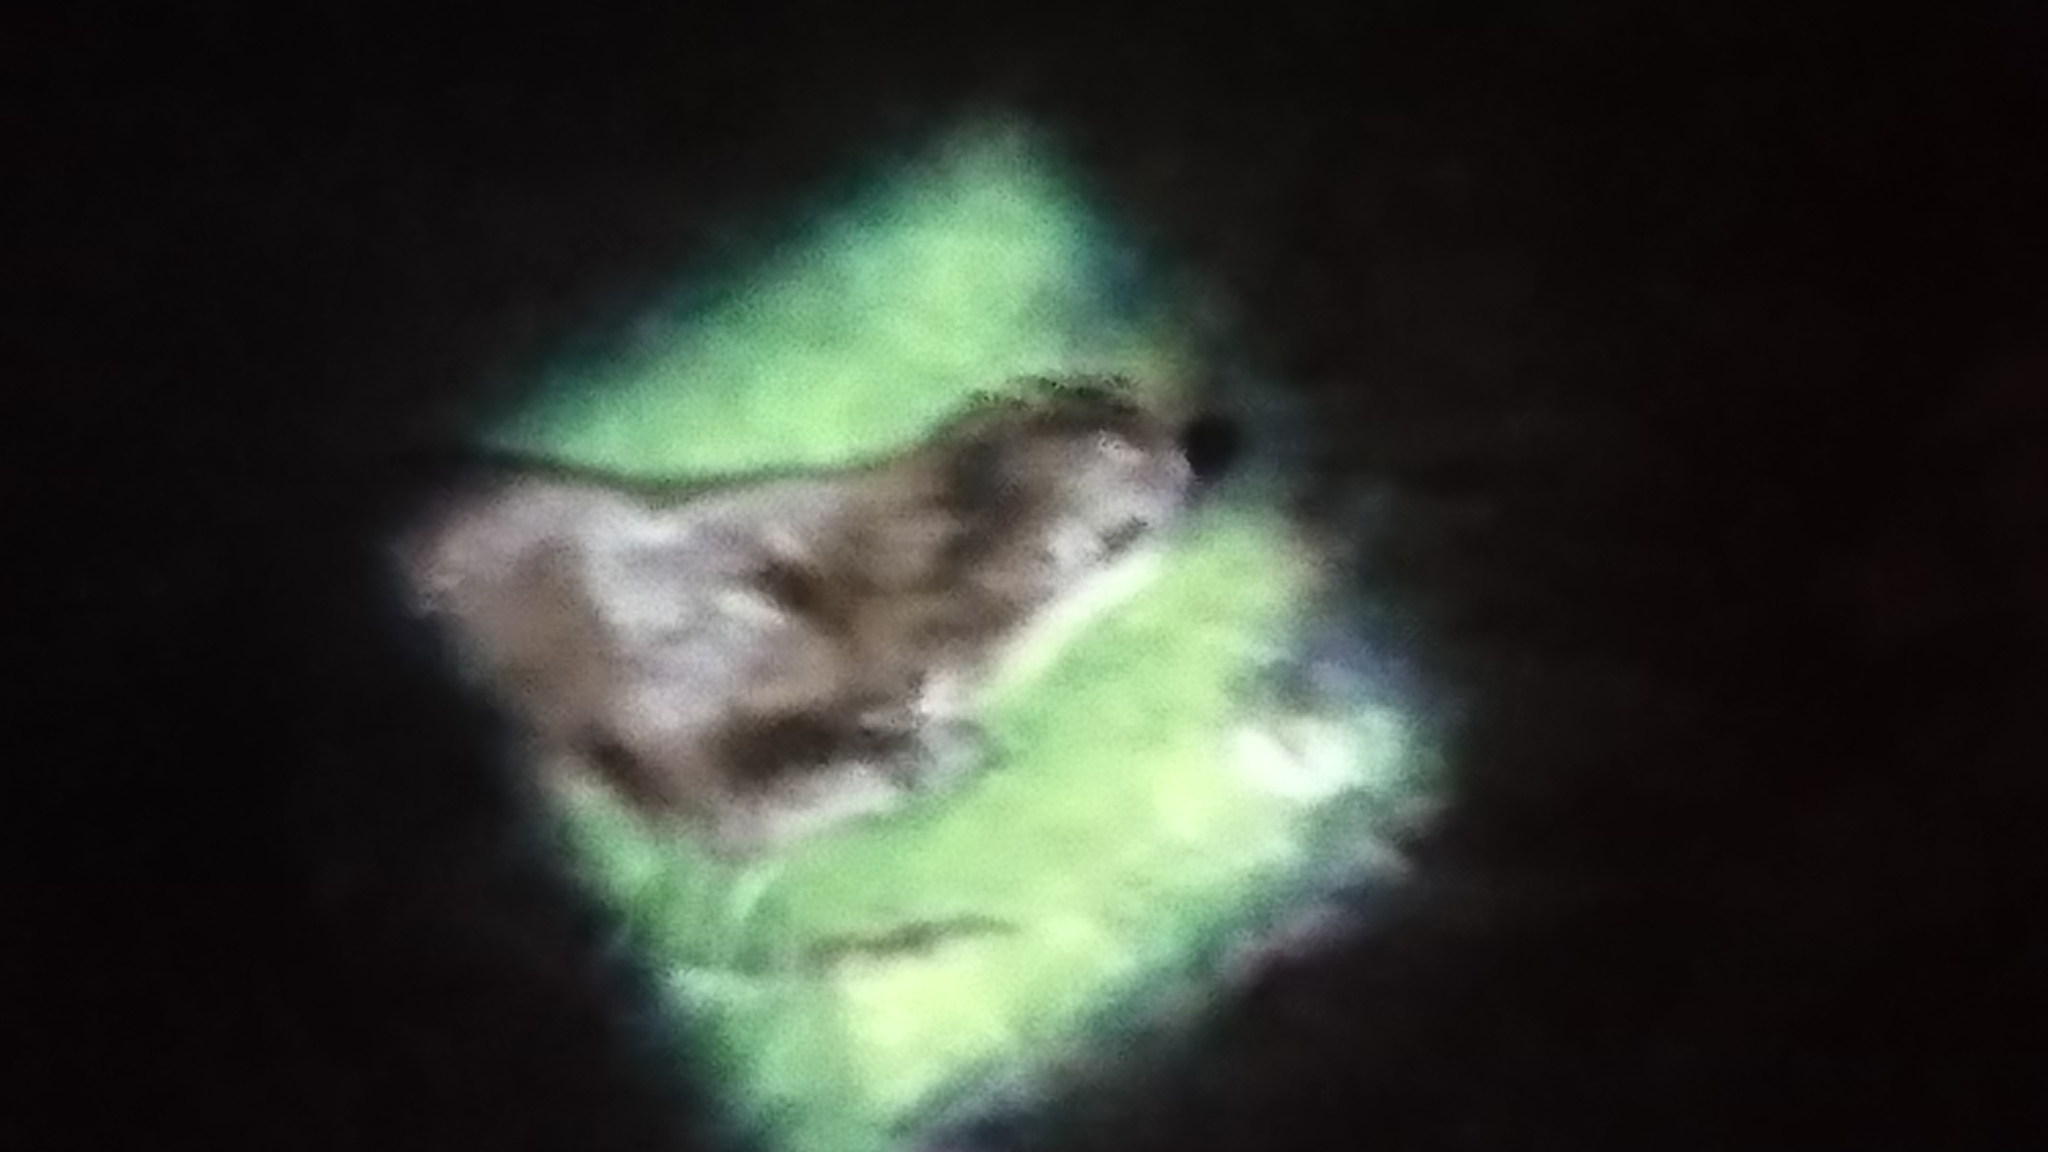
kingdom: Animalia
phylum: Chordata
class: Mammalia
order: Carnivora
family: Mustelidae
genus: Lutra
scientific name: Lutra lutra
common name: European otter
